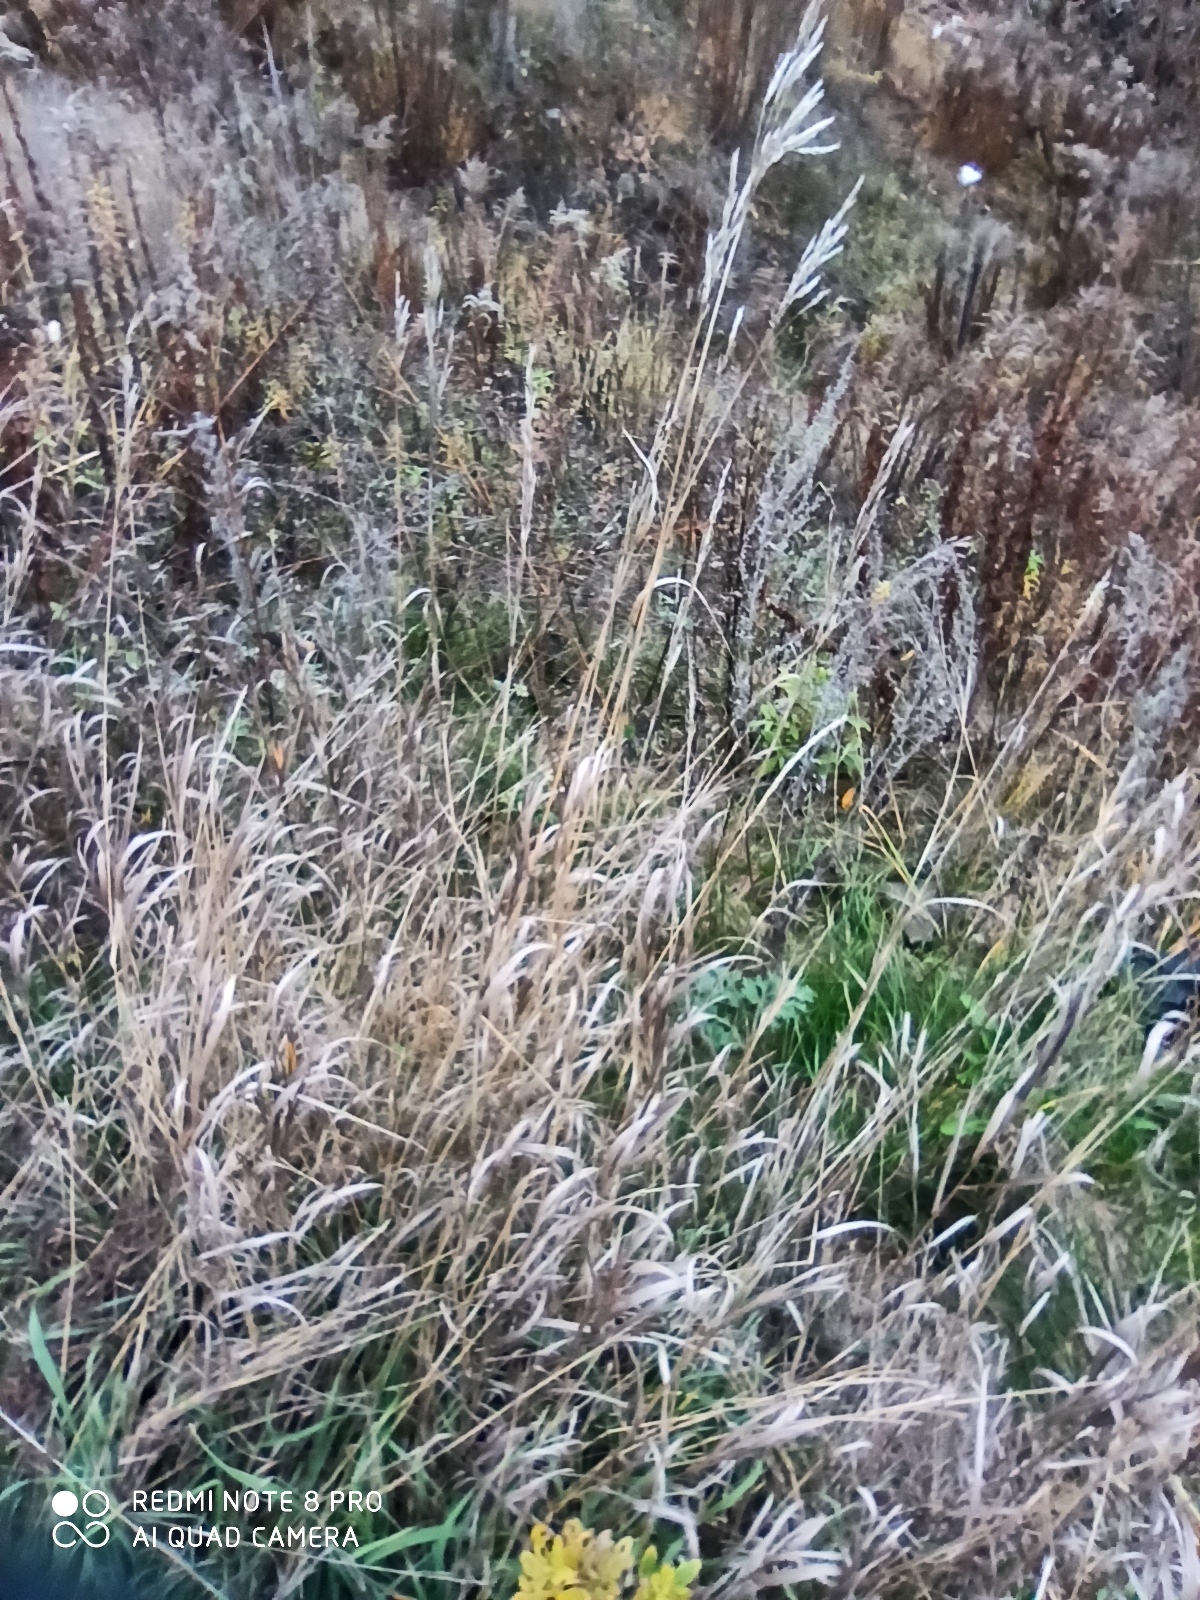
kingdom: Plantae
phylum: Tracheophyta
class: Liliopsida
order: Poales
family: Poaceae
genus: Bromus
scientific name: Bromus inermis
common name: Smooth brome
